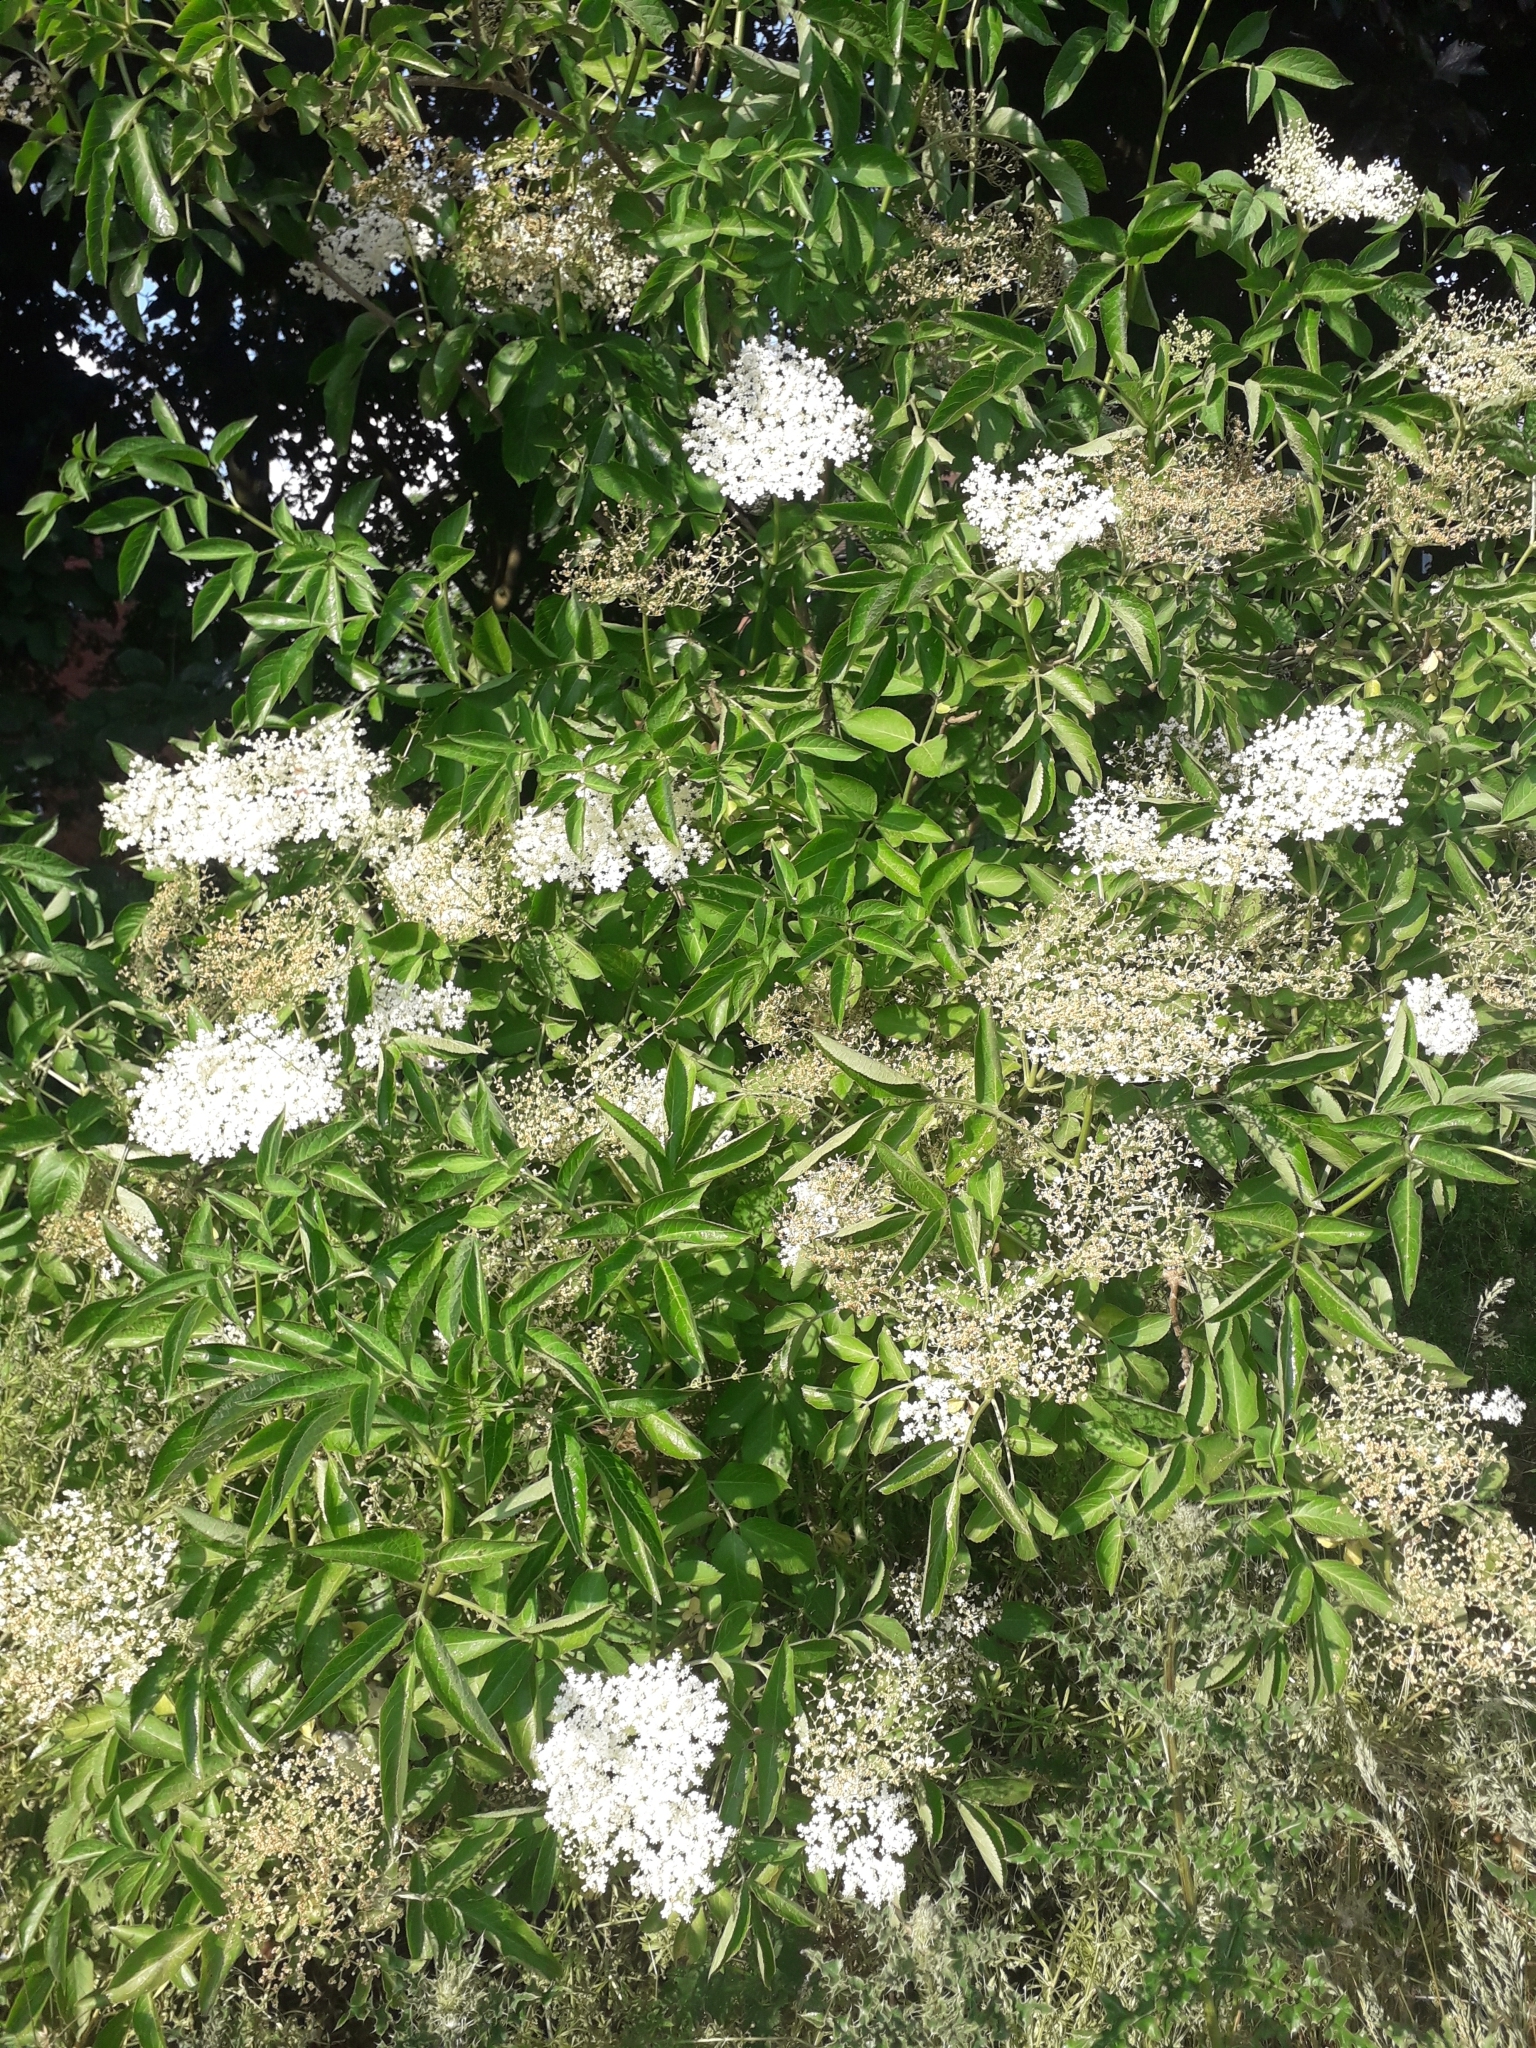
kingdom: Plantae
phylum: Tracheophyta
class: Magnoliopsida
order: Dipsacales
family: Viburnaceae
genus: Sambucus
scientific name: Sambucus nigra
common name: Elder
